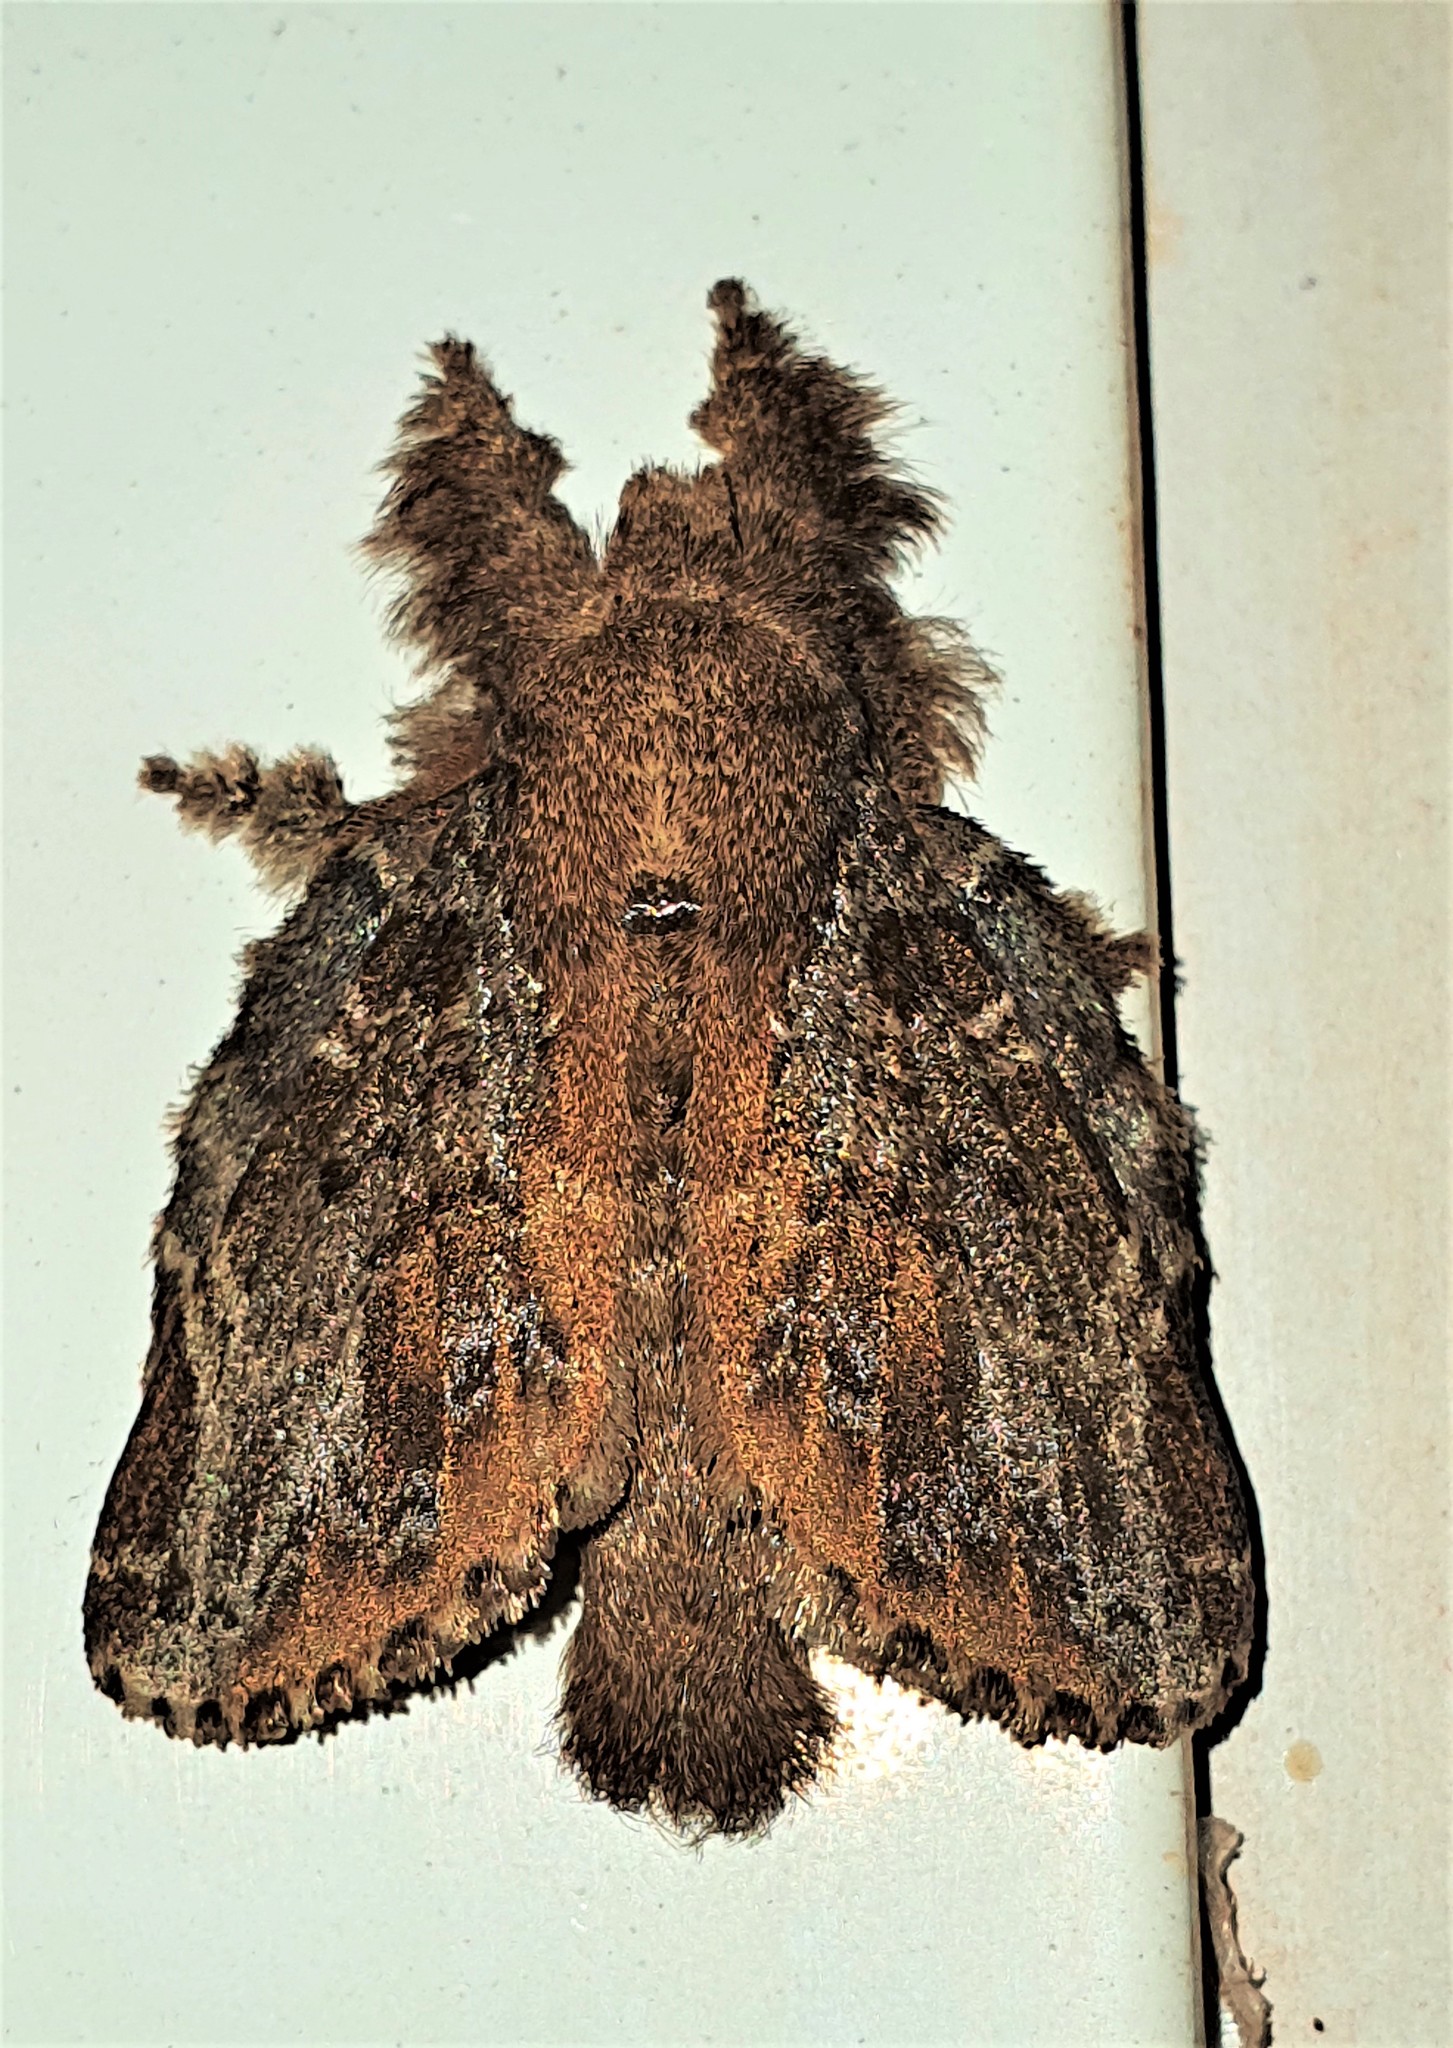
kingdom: Animalia
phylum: Arthropoda
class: Insecta
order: Lepidoptera
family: Lasiocampidae
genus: Euglyphis
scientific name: Euglyphis rundala
